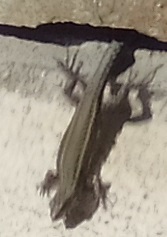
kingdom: Animalia
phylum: Chordata
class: Squamata
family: Lacertidae
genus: Podarcis
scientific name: Podarcis bocagei
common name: Bocage's wall lizard
